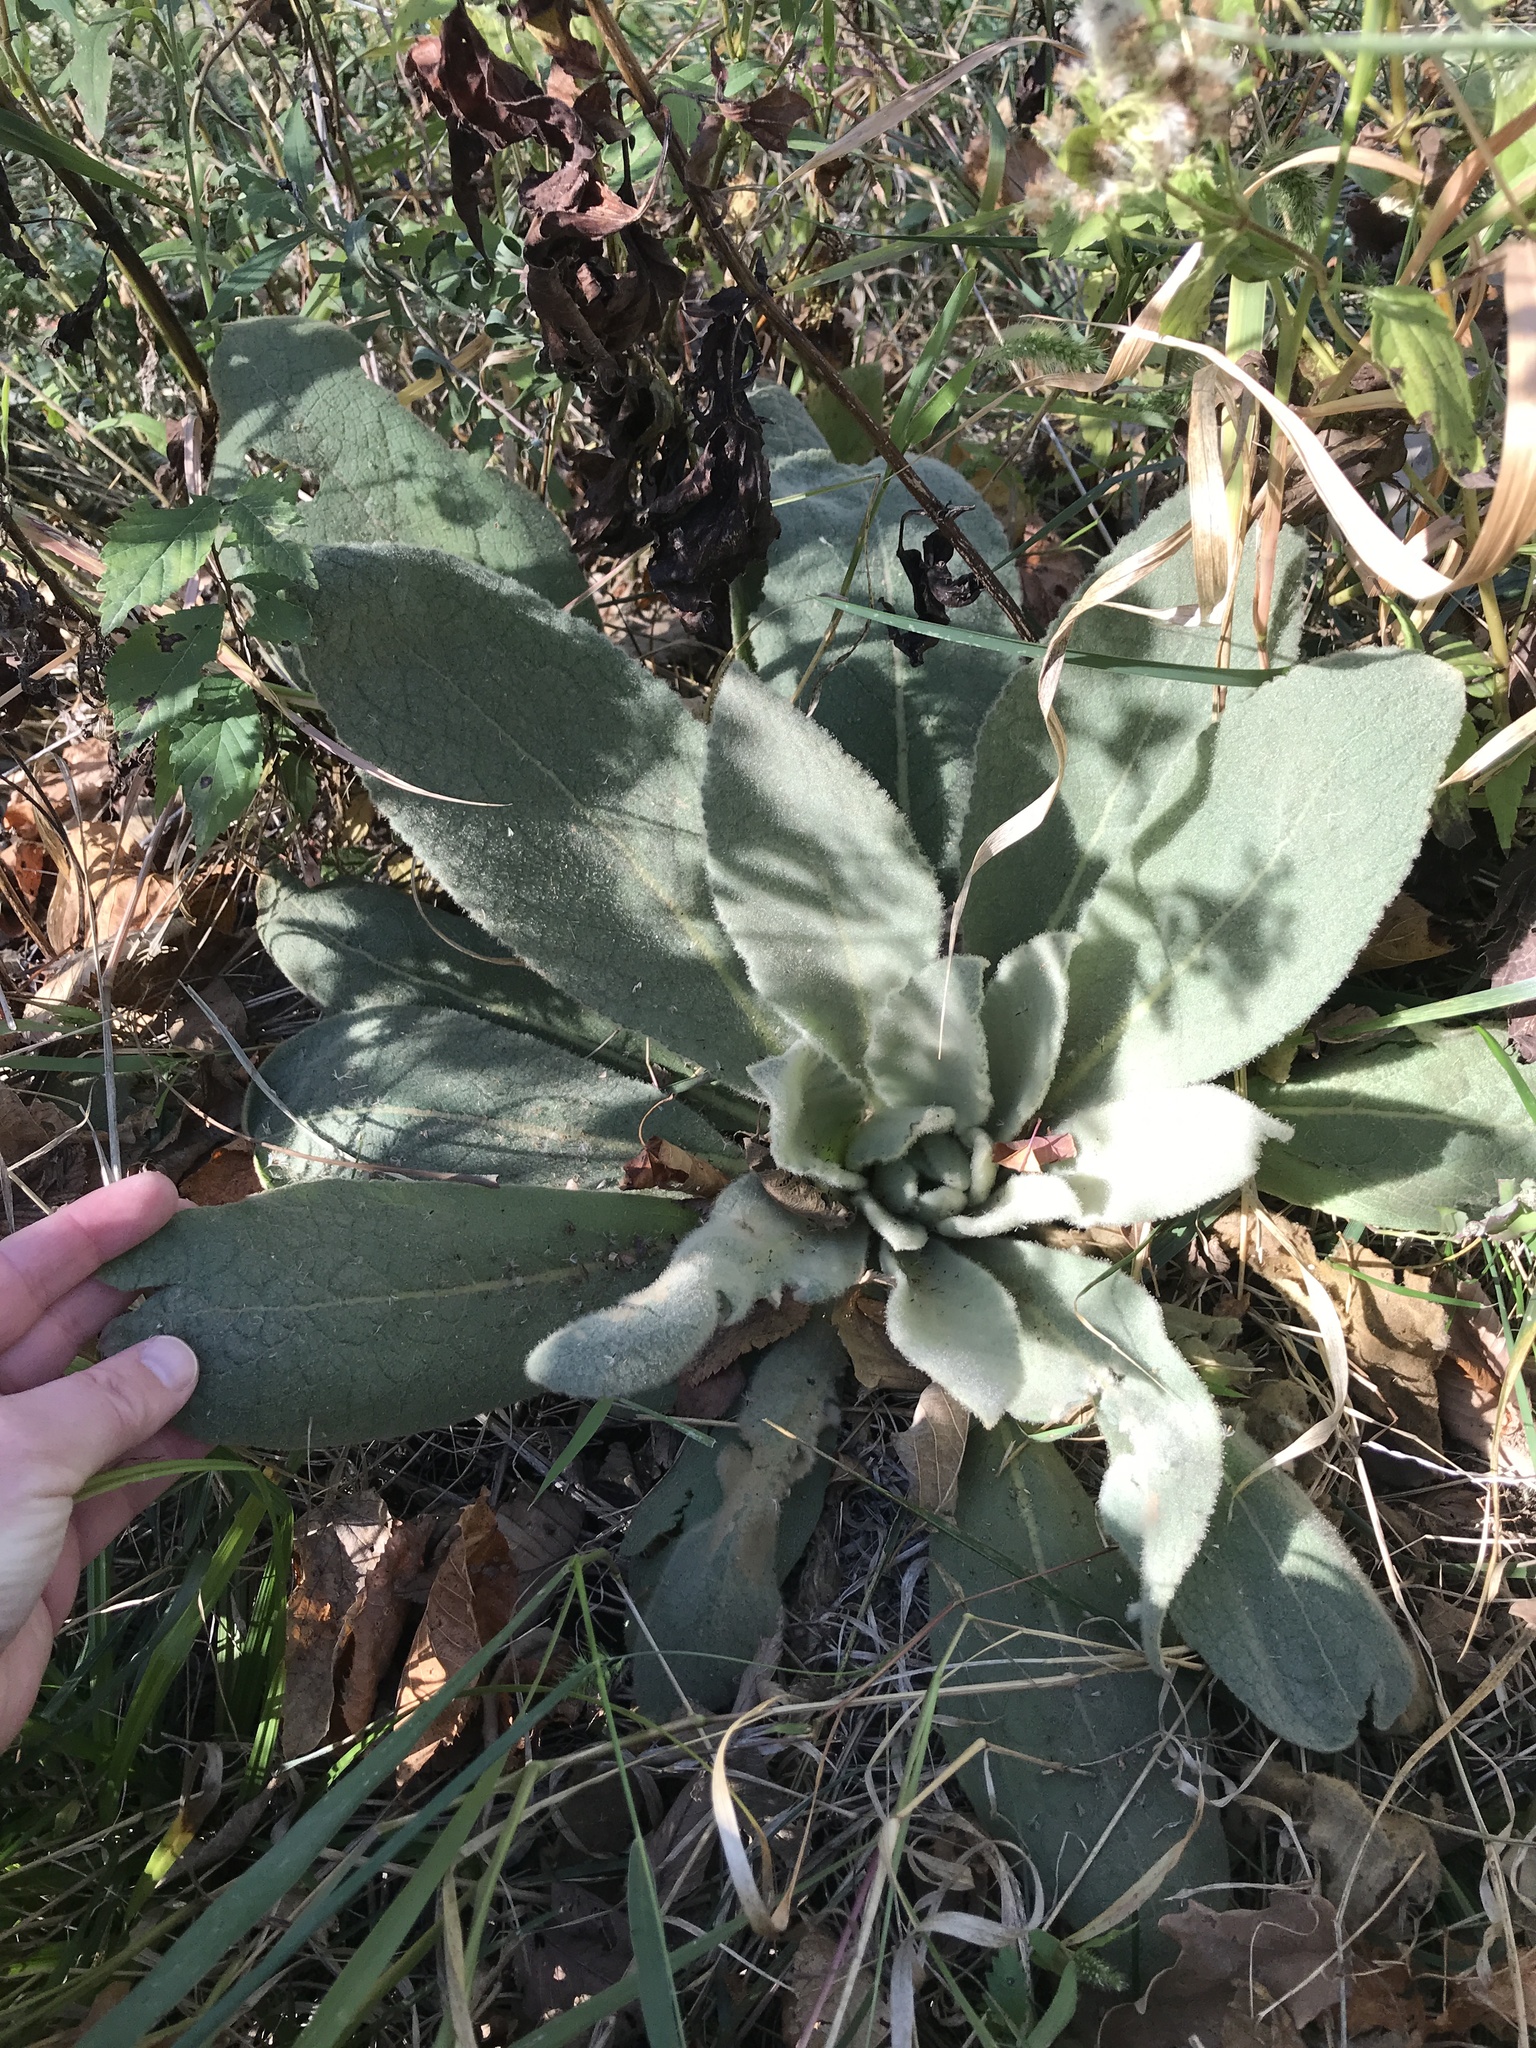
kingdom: Plantae
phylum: Tracheophyta
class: Magnoliopsida
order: Lamiales
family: Scrophulariaceae
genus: Verbascum
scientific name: Verbascum thapsus
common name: Common mullein
